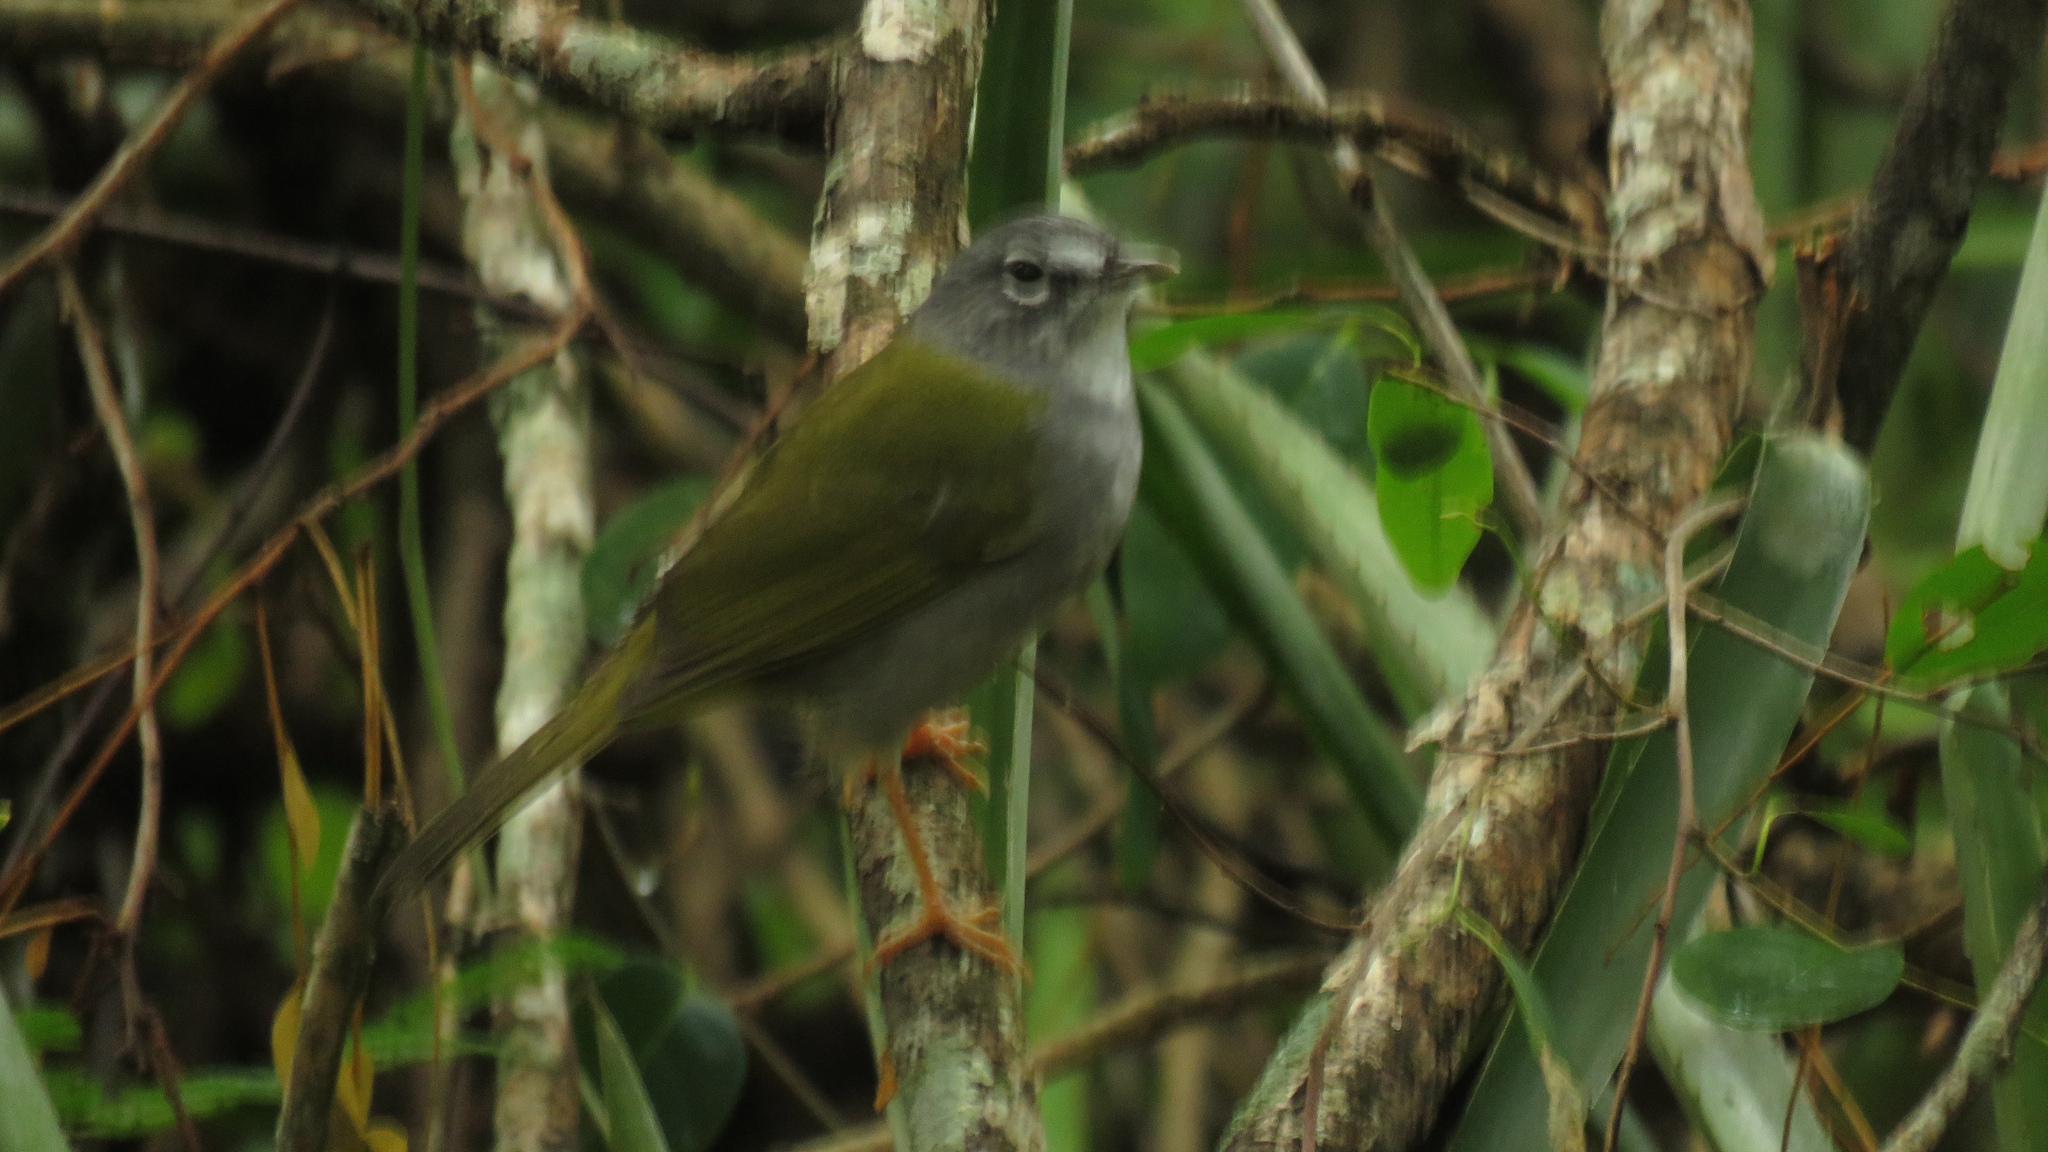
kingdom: Animalia
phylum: Chordata
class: Aves
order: Passeriformes
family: Parulidae
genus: Myiothlypis
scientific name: Myiothlypis leucoblephara
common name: White-rimmed warbler
